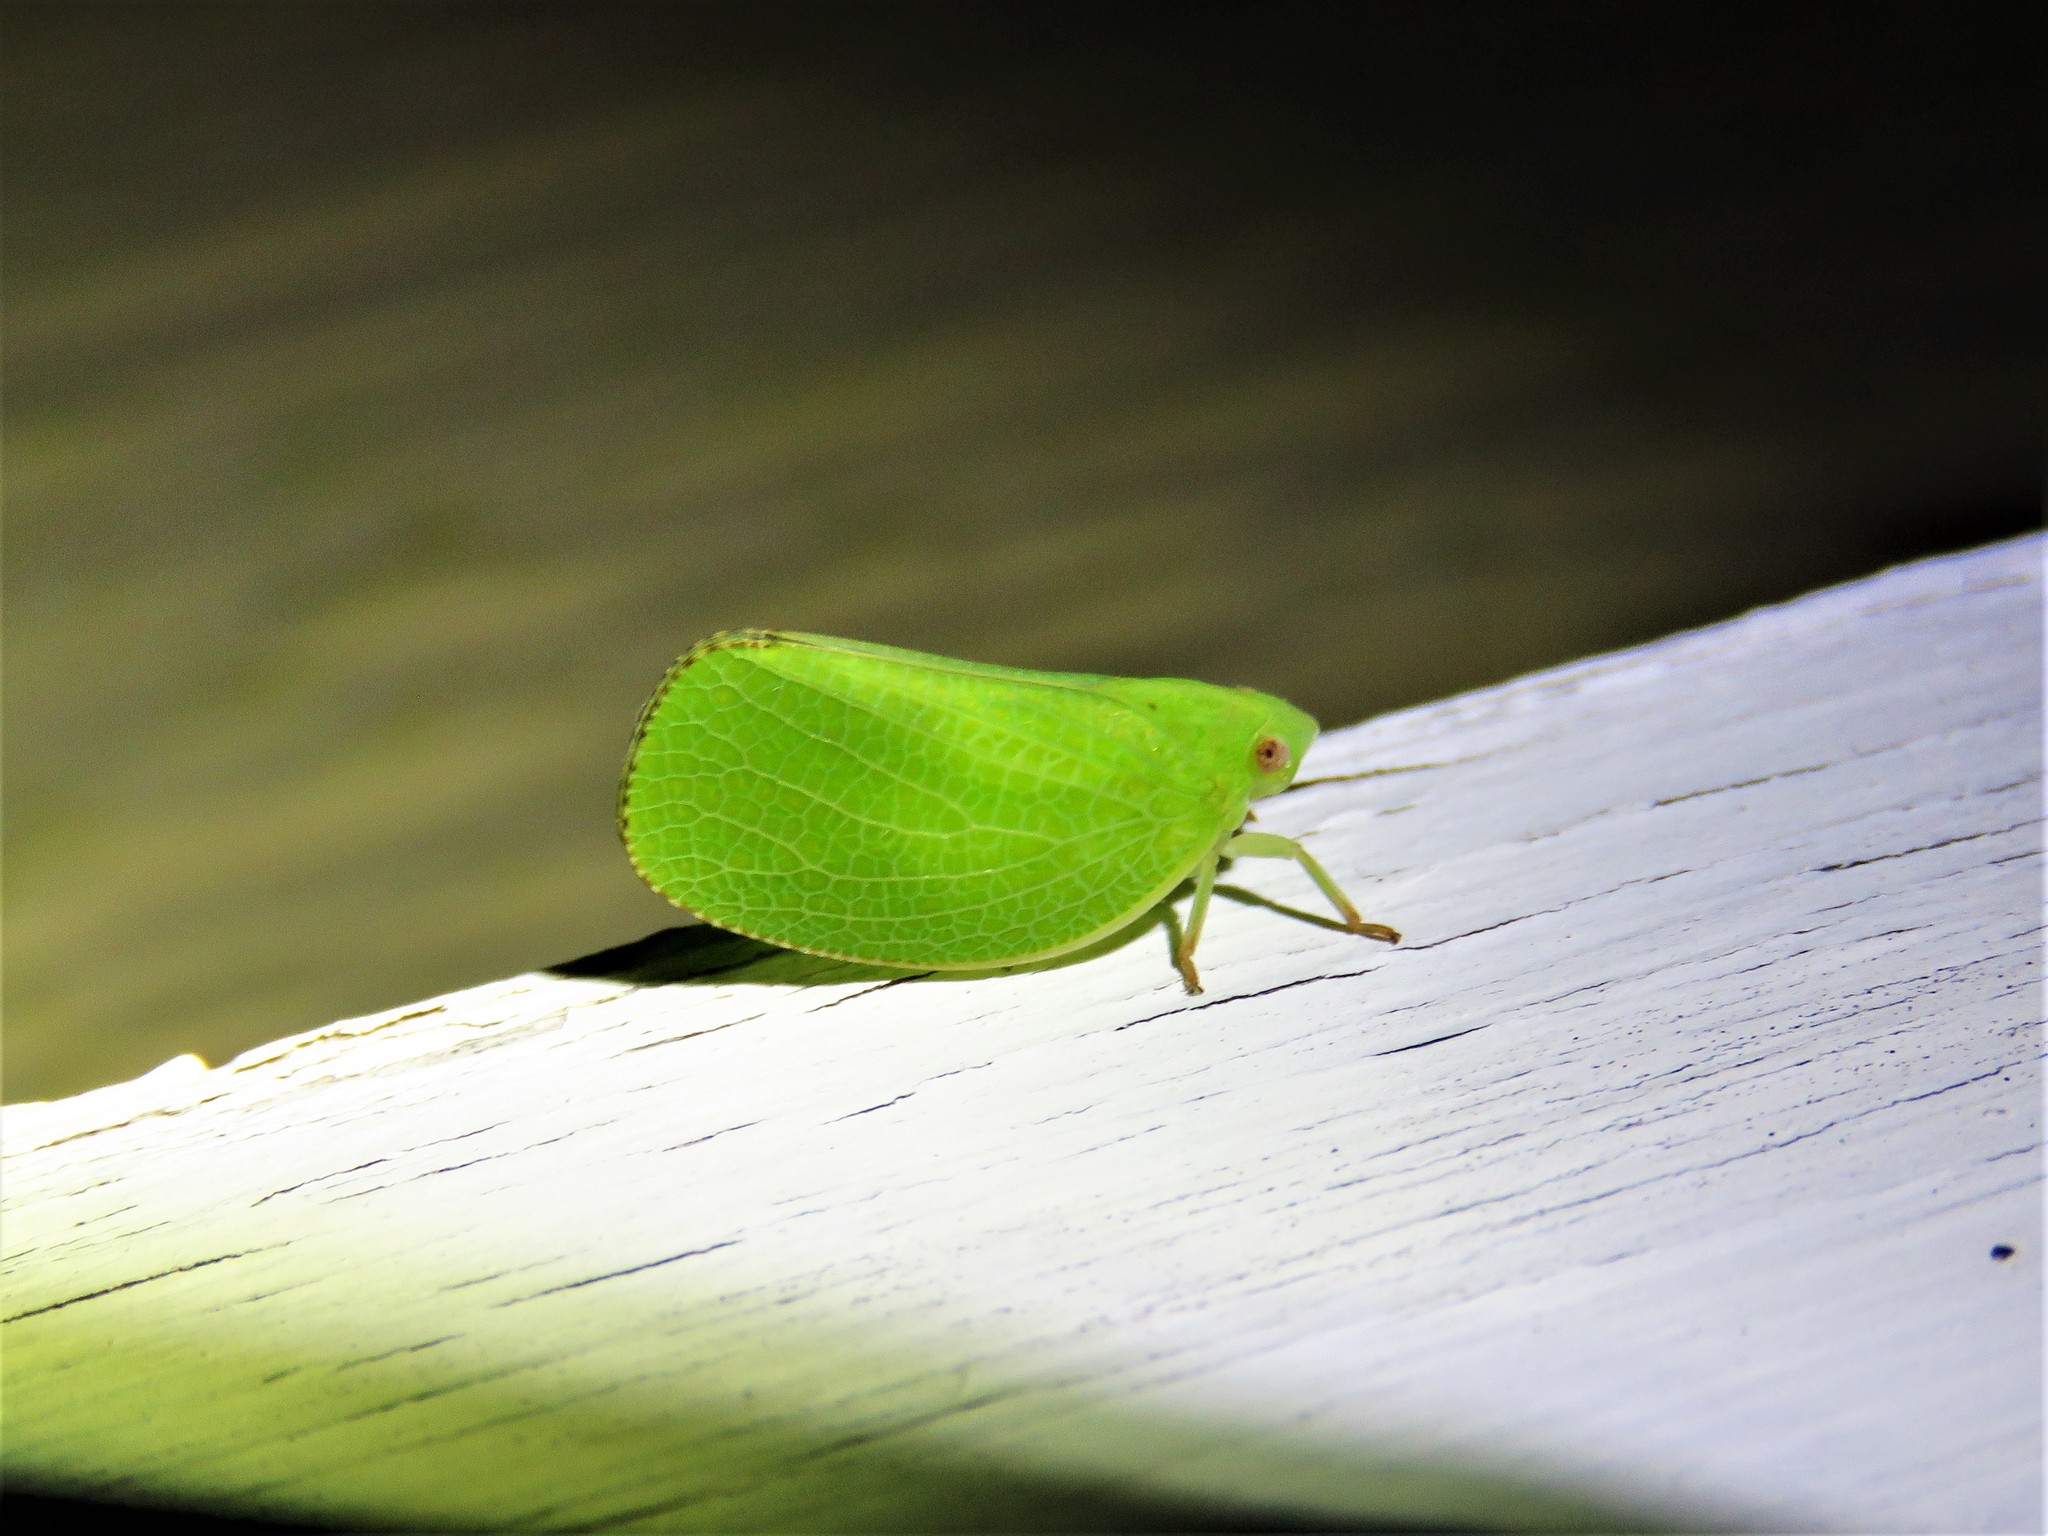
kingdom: Animalia
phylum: Arthropoda
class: Insecta
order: Hemiptera
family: Acanaloniidae
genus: Acanalonia
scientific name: Acanalonia conica
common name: Green cone-headed planthopper
